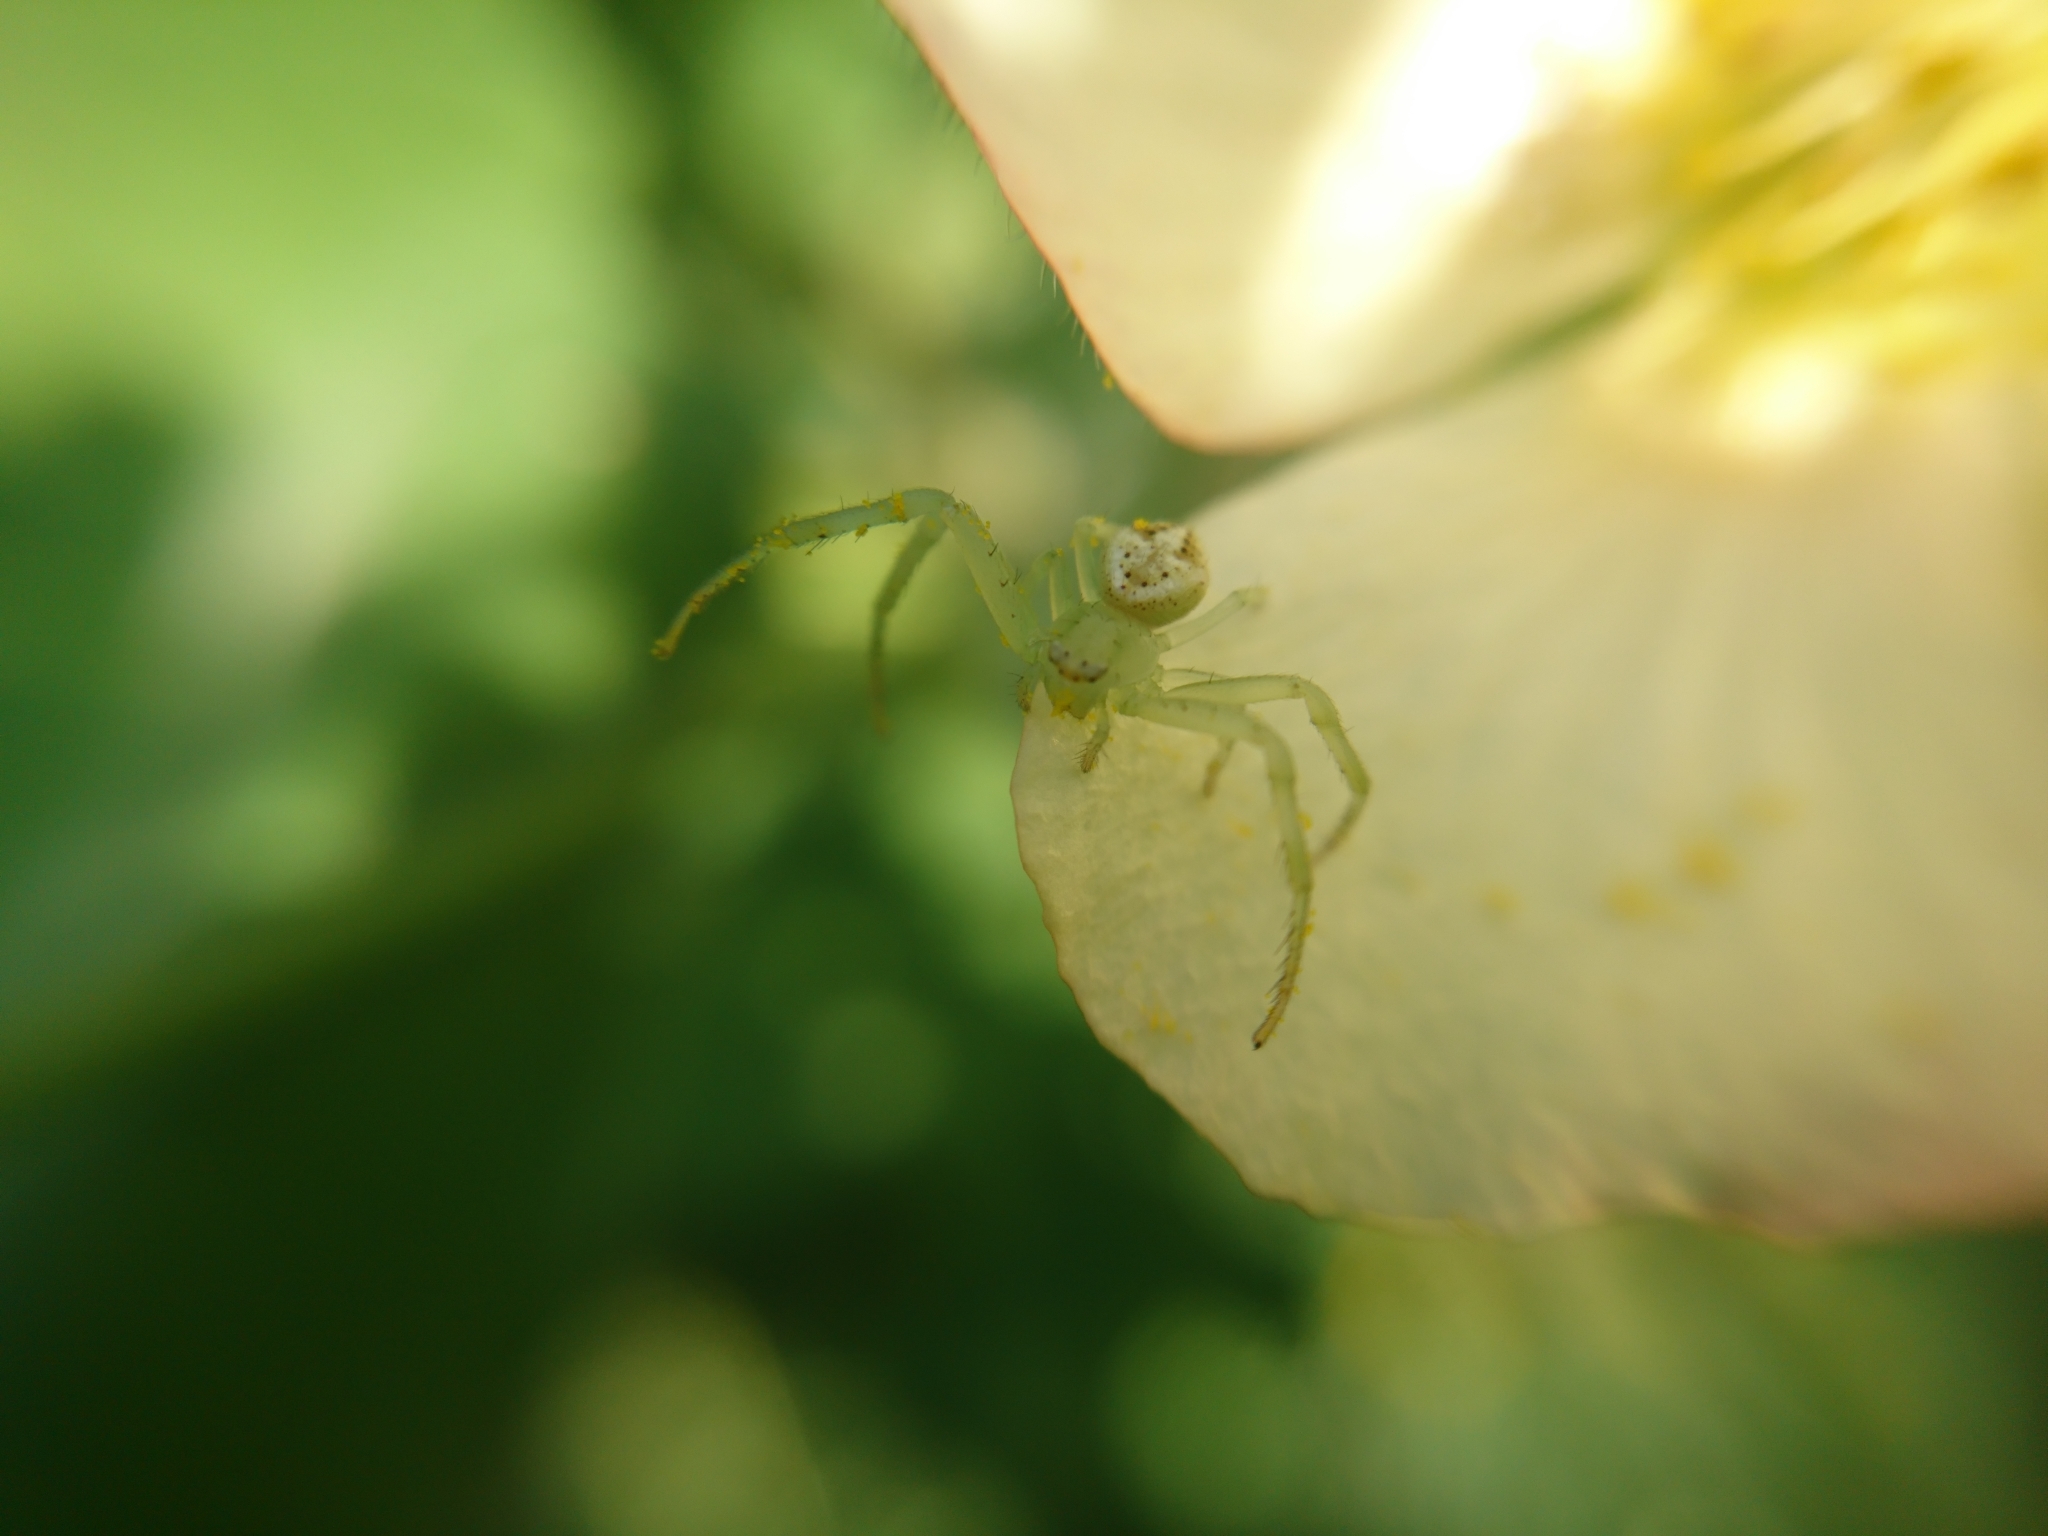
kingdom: Animalia
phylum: Arthropoda
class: Arachnida
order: Araneae
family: Thomisidae
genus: Misumenops
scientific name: Misumenops
